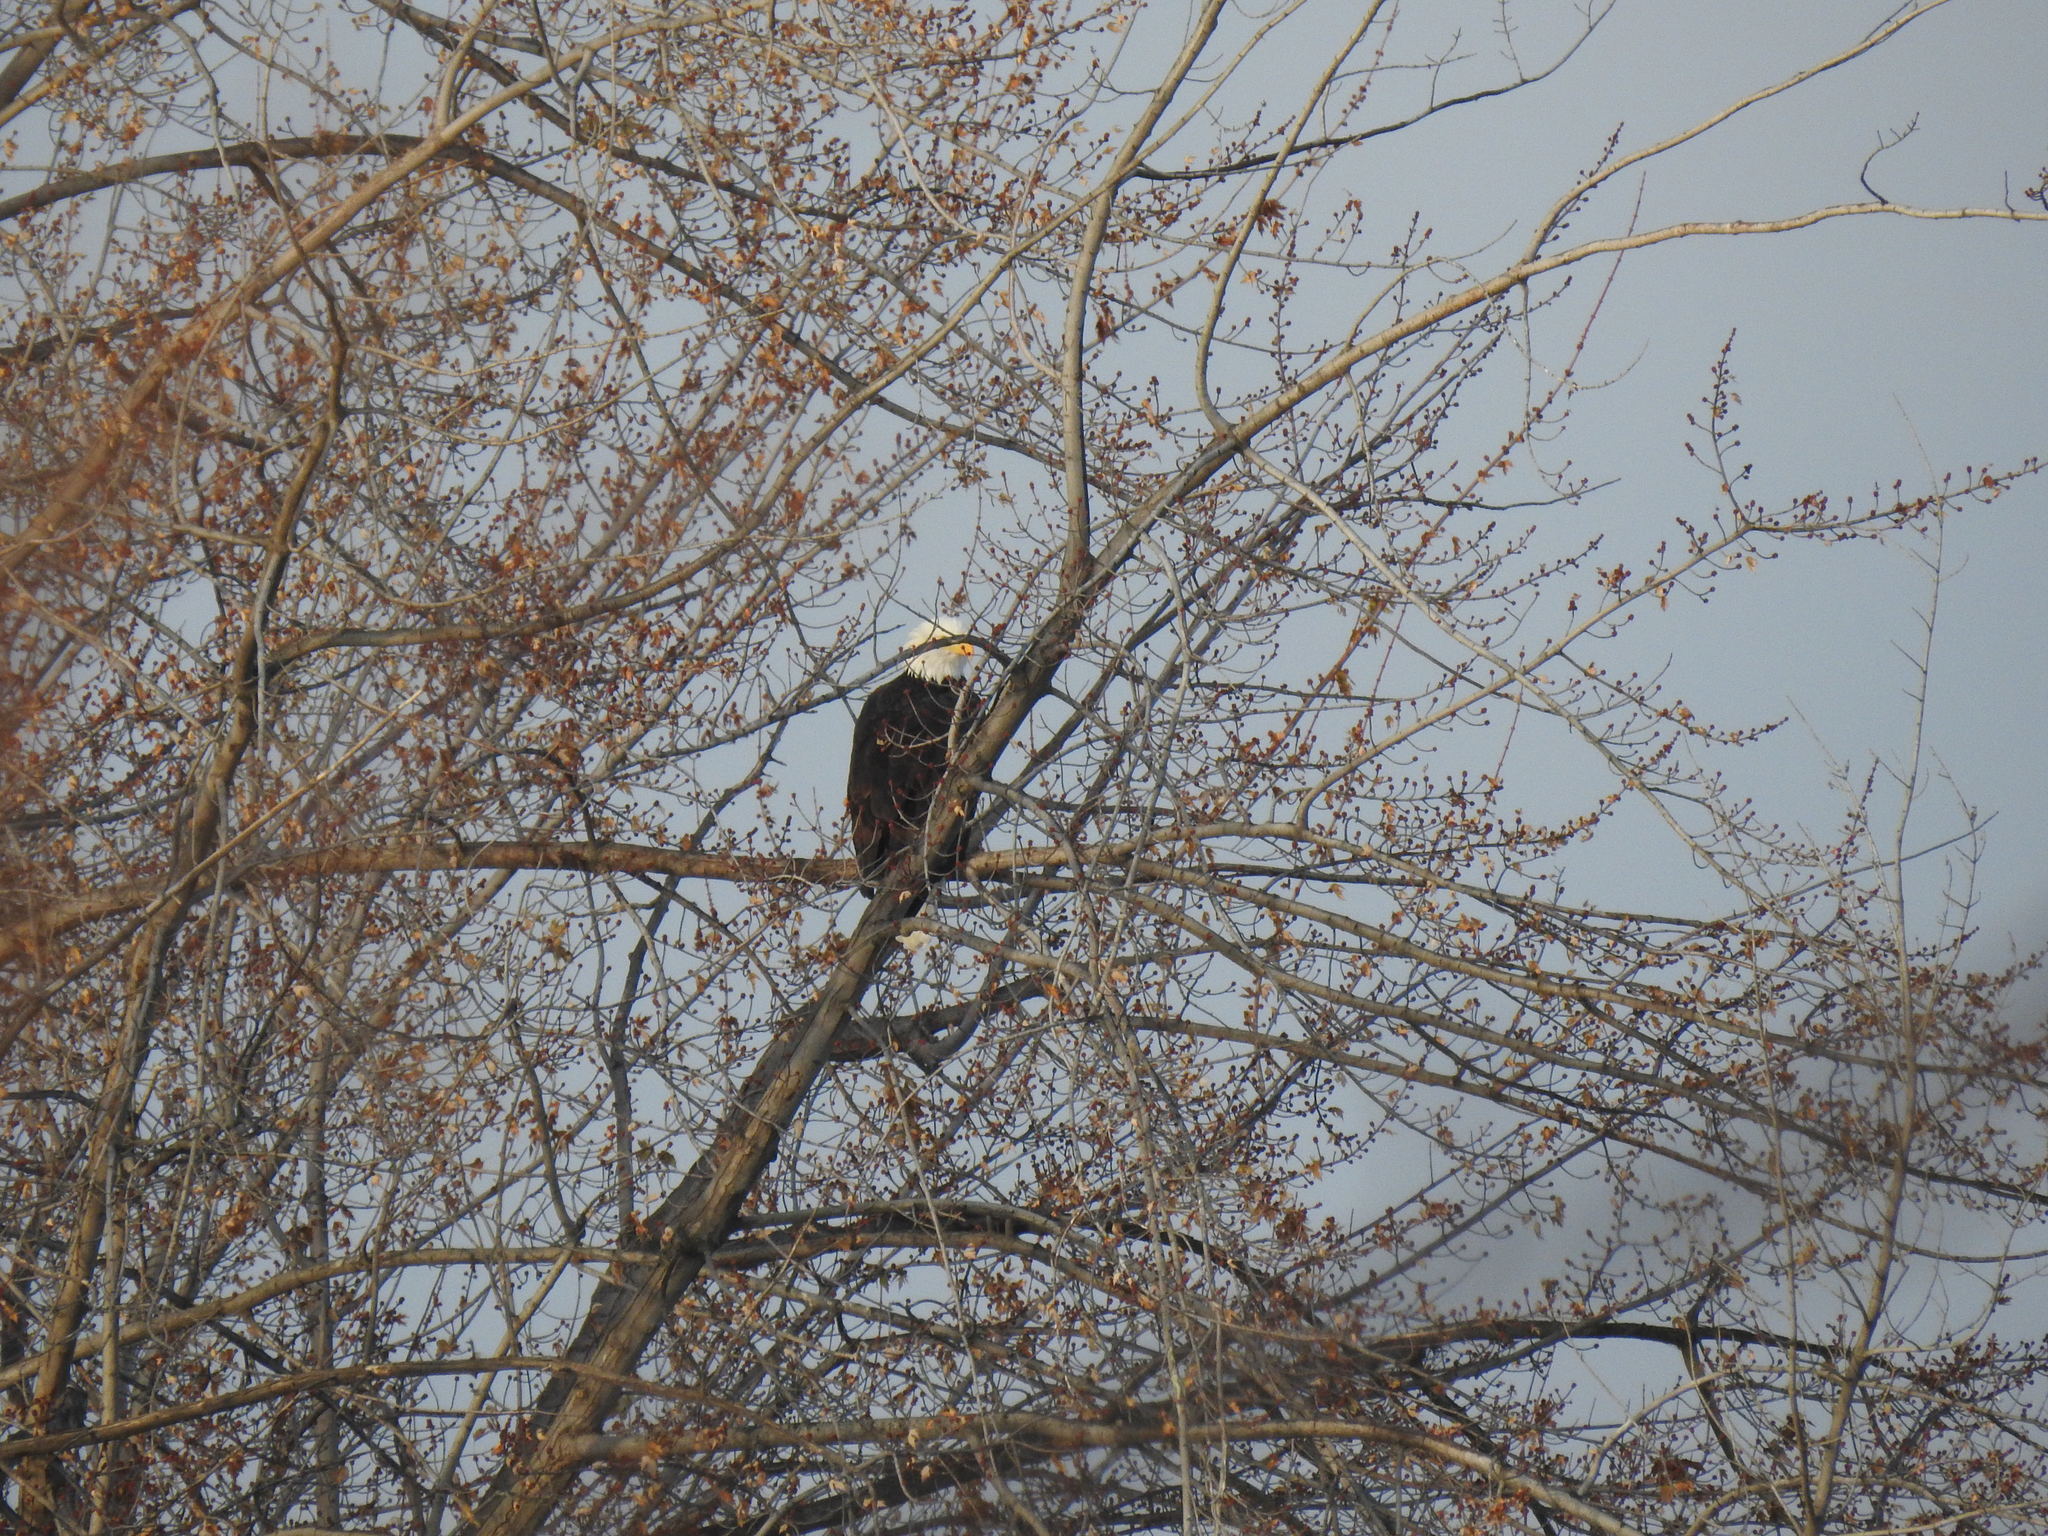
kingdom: Animalia
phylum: Chordata
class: Aves
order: Accipitriformes
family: Accipitridae
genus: Haliaeetus
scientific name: Haliaeetus leucocephalus
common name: Bald eagle
